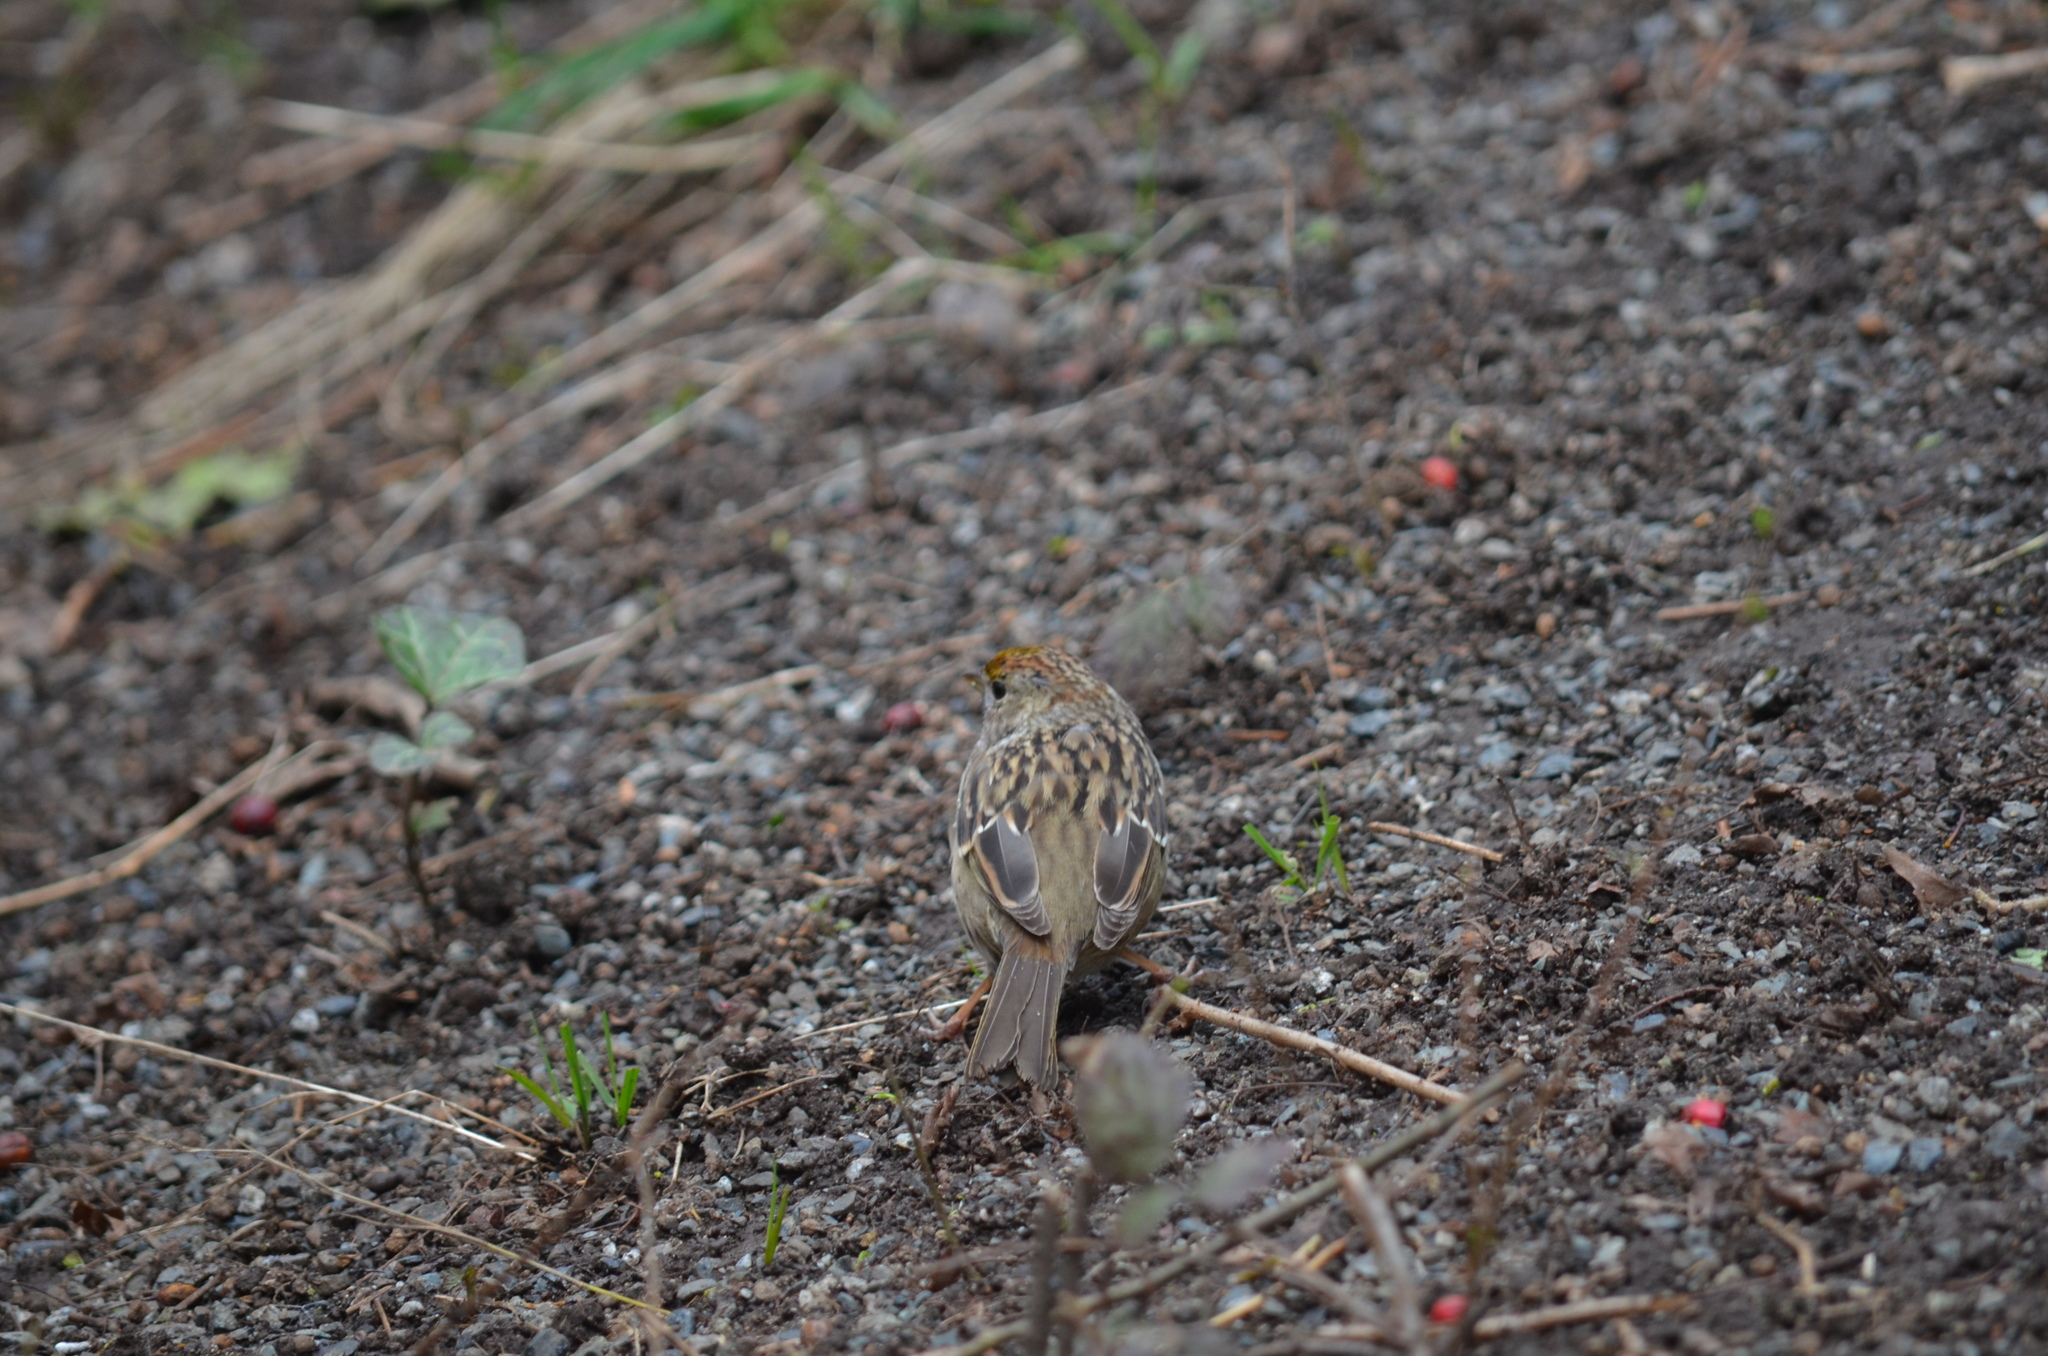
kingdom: Animalia
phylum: Chordata
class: Aves
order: Passeriformes
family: Passerellidae
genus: Zonotrichia
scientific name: Zonotrichia atricapilla
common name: Golden-crowned sparrow
